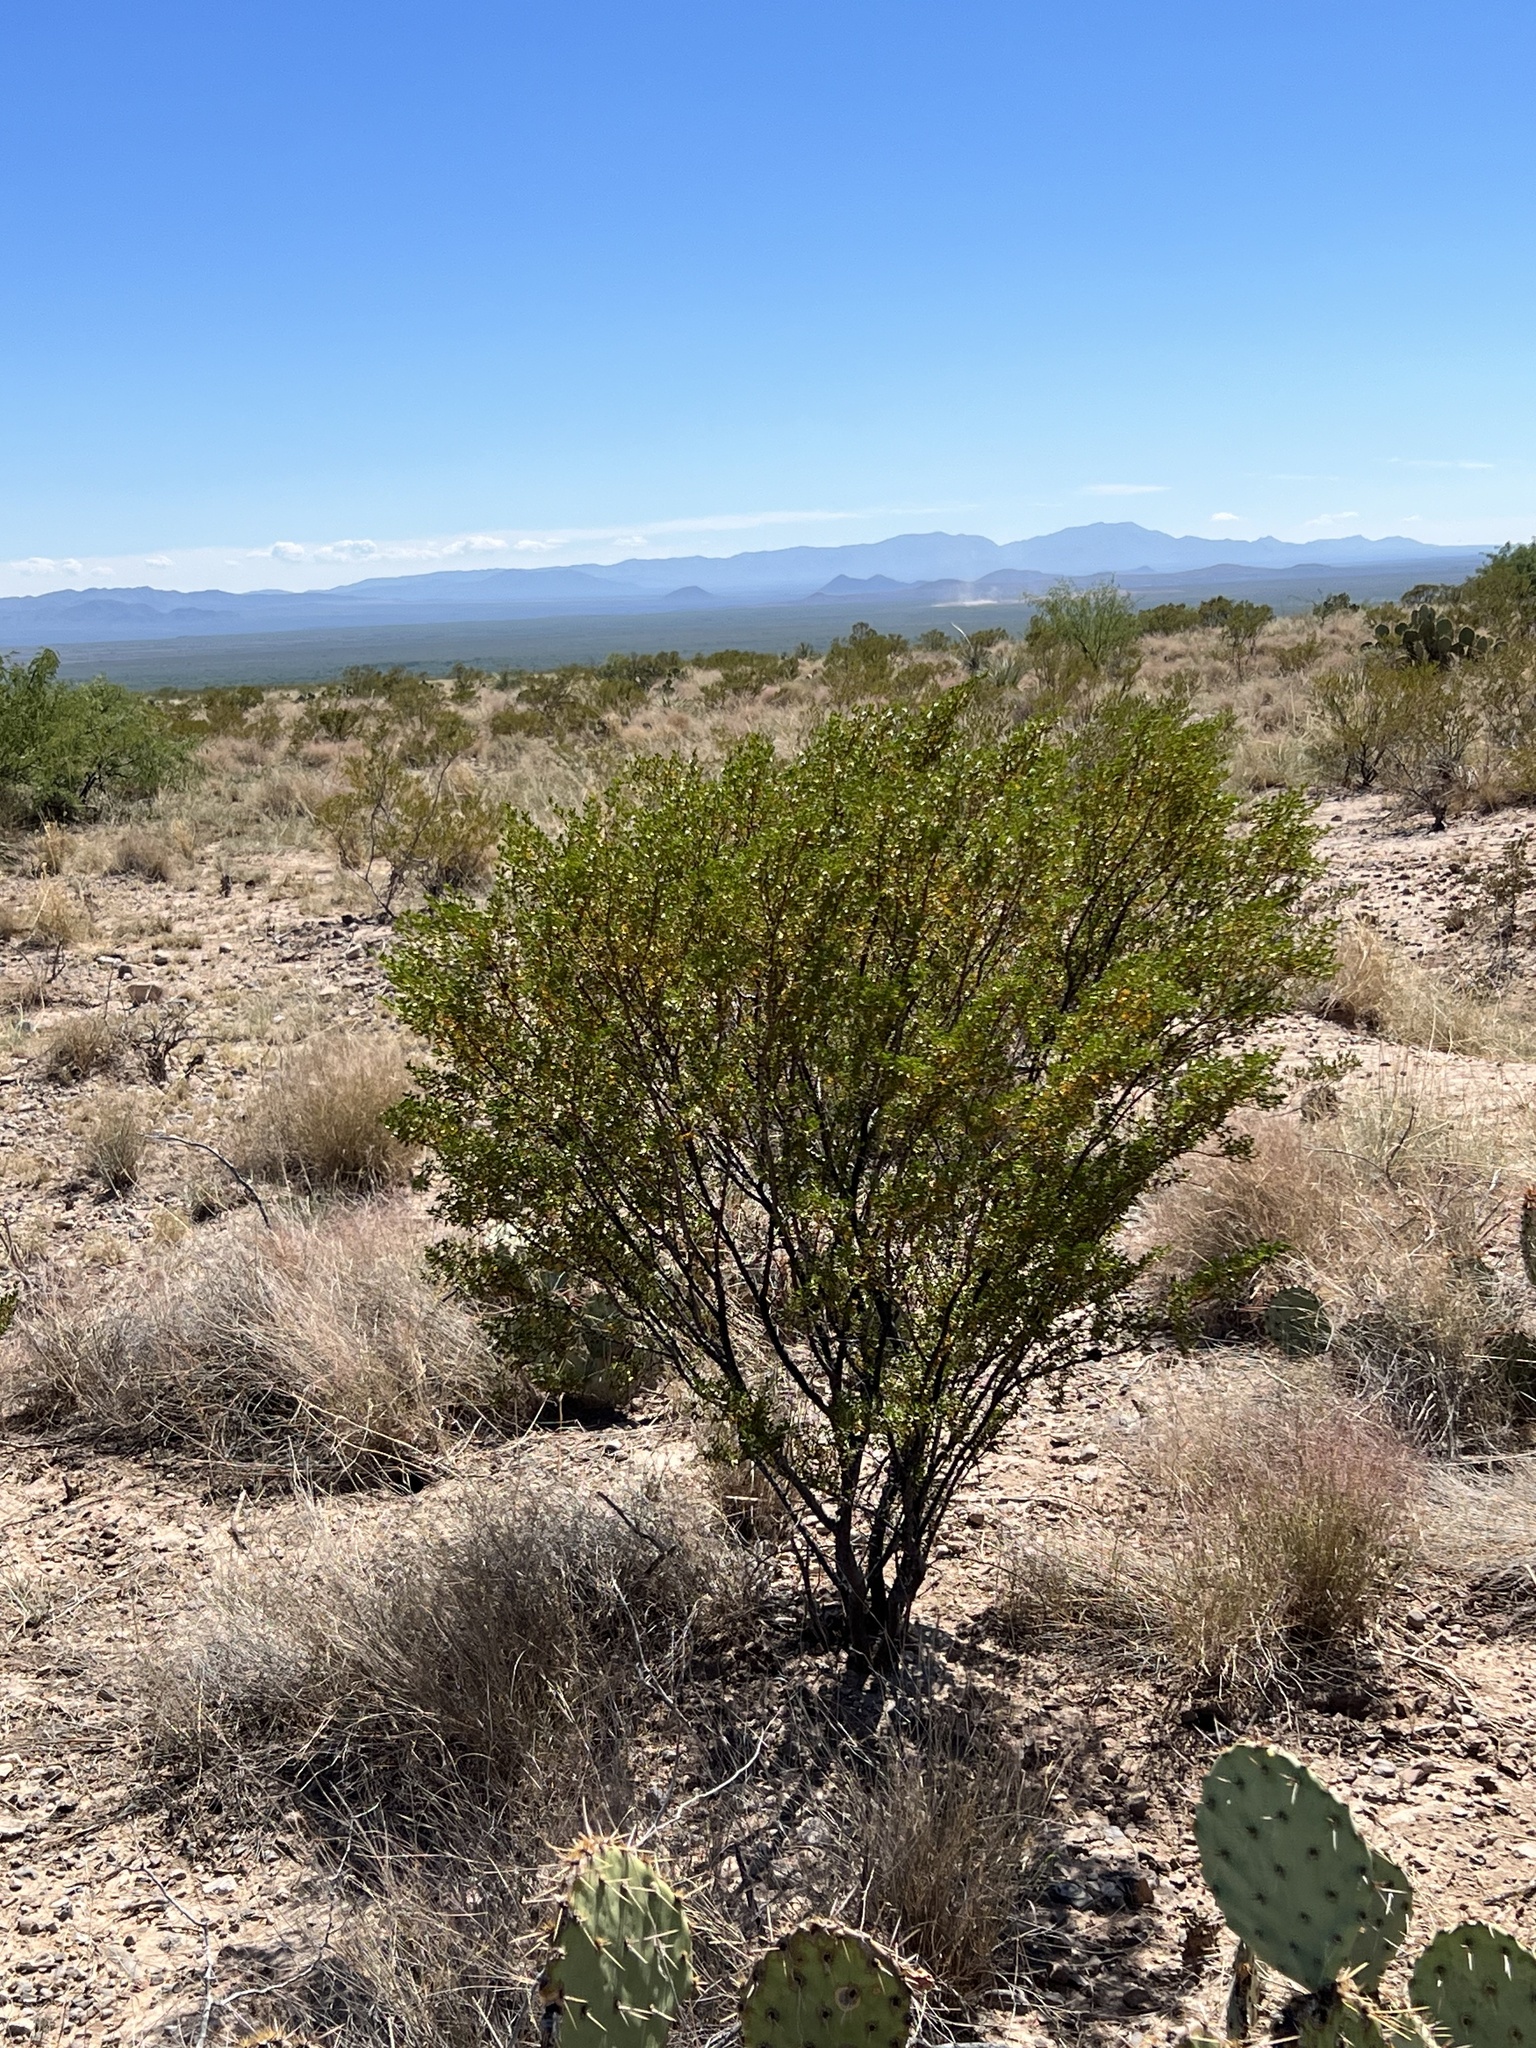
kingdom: Plantae
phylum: Tracheophyta
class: Magnoliopsida
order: Zygophyllales
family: Zygophyllaceae
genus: Larrea
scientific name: Larrea tridentata
